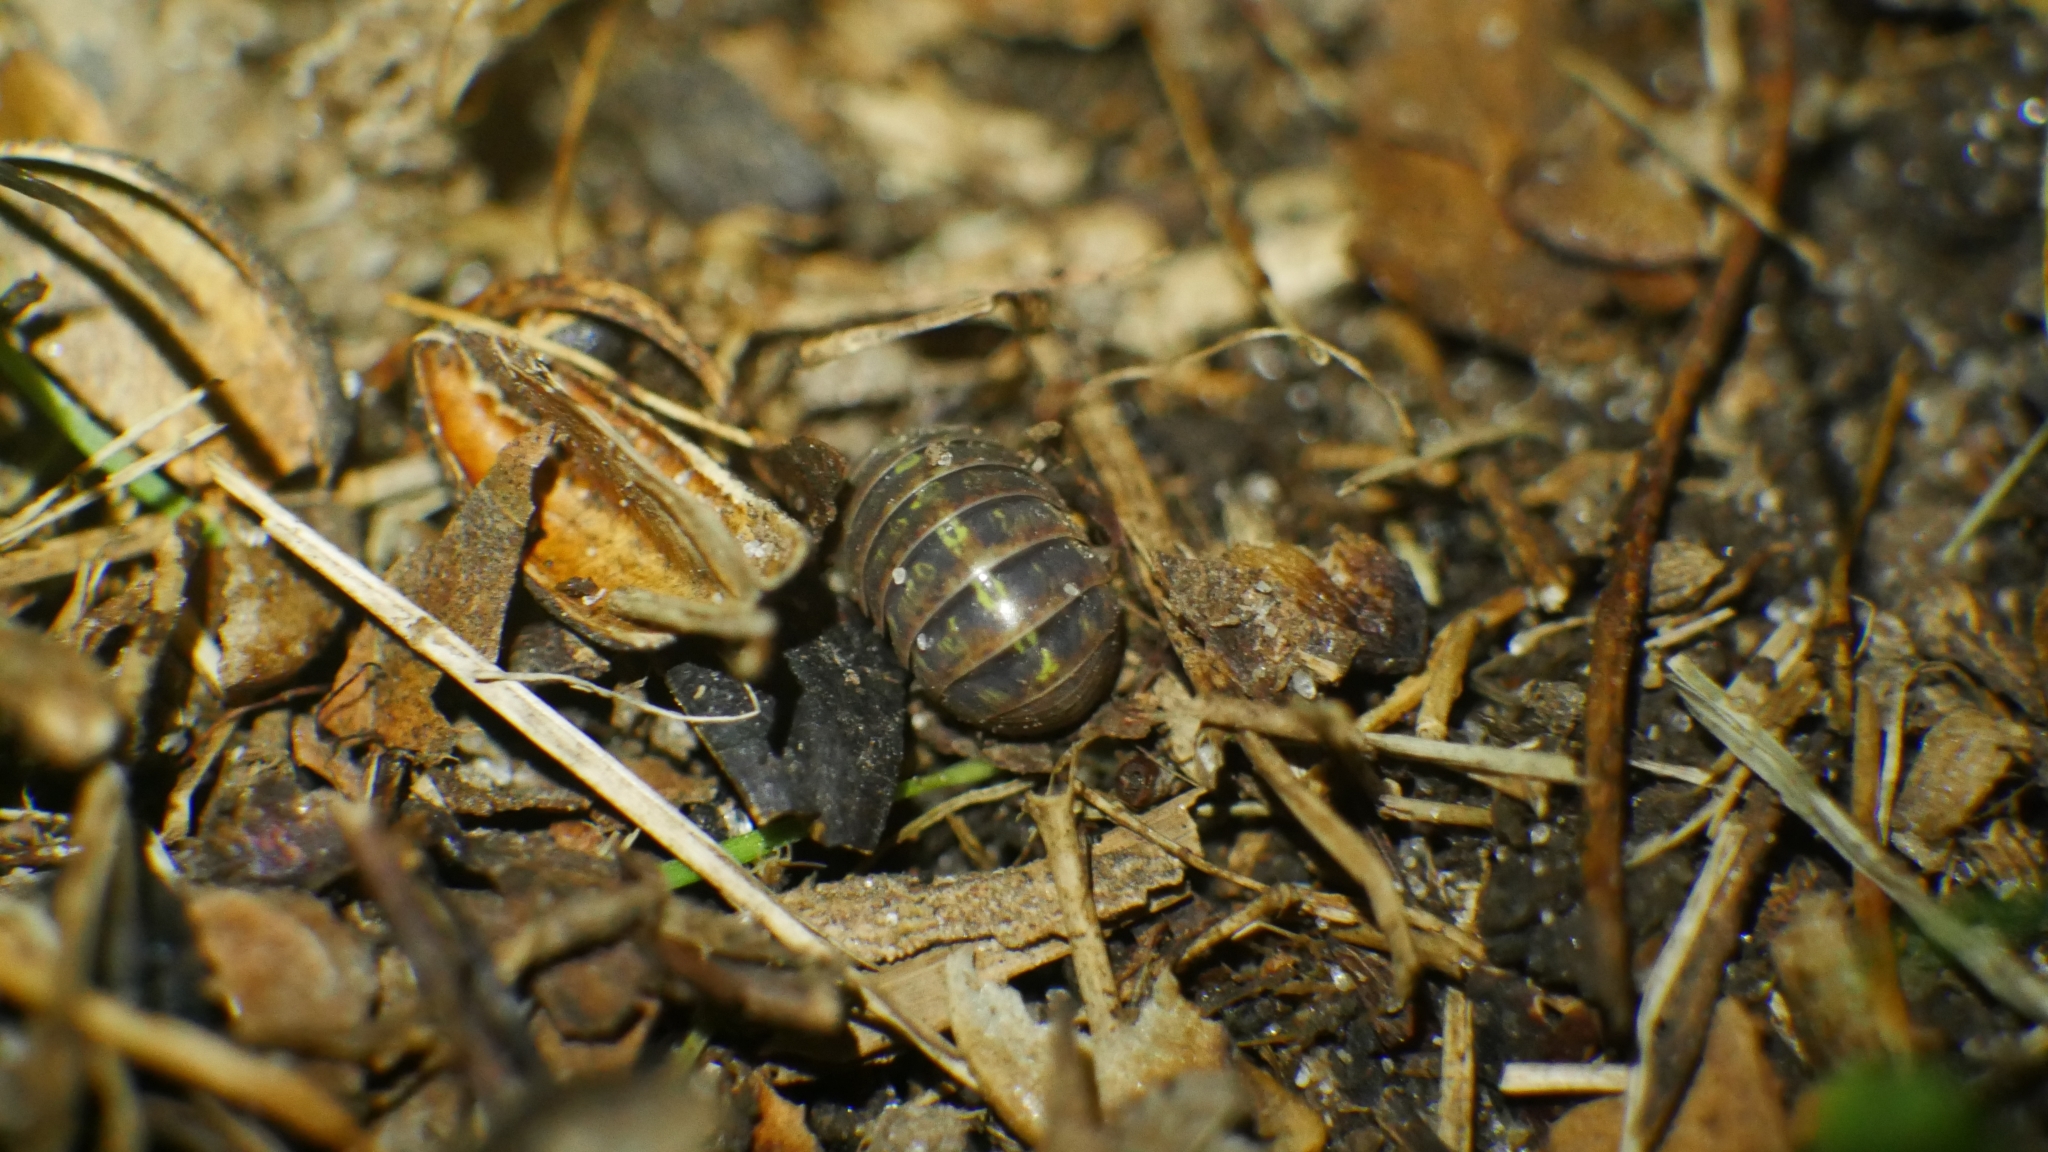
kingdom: Animalia
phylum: Arthropoda
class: Malacostraca
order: Isopoda
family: Armadillidiidae
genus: Armadillidium
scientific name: Armadillidium vulgare
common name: Common pill woodlouse
